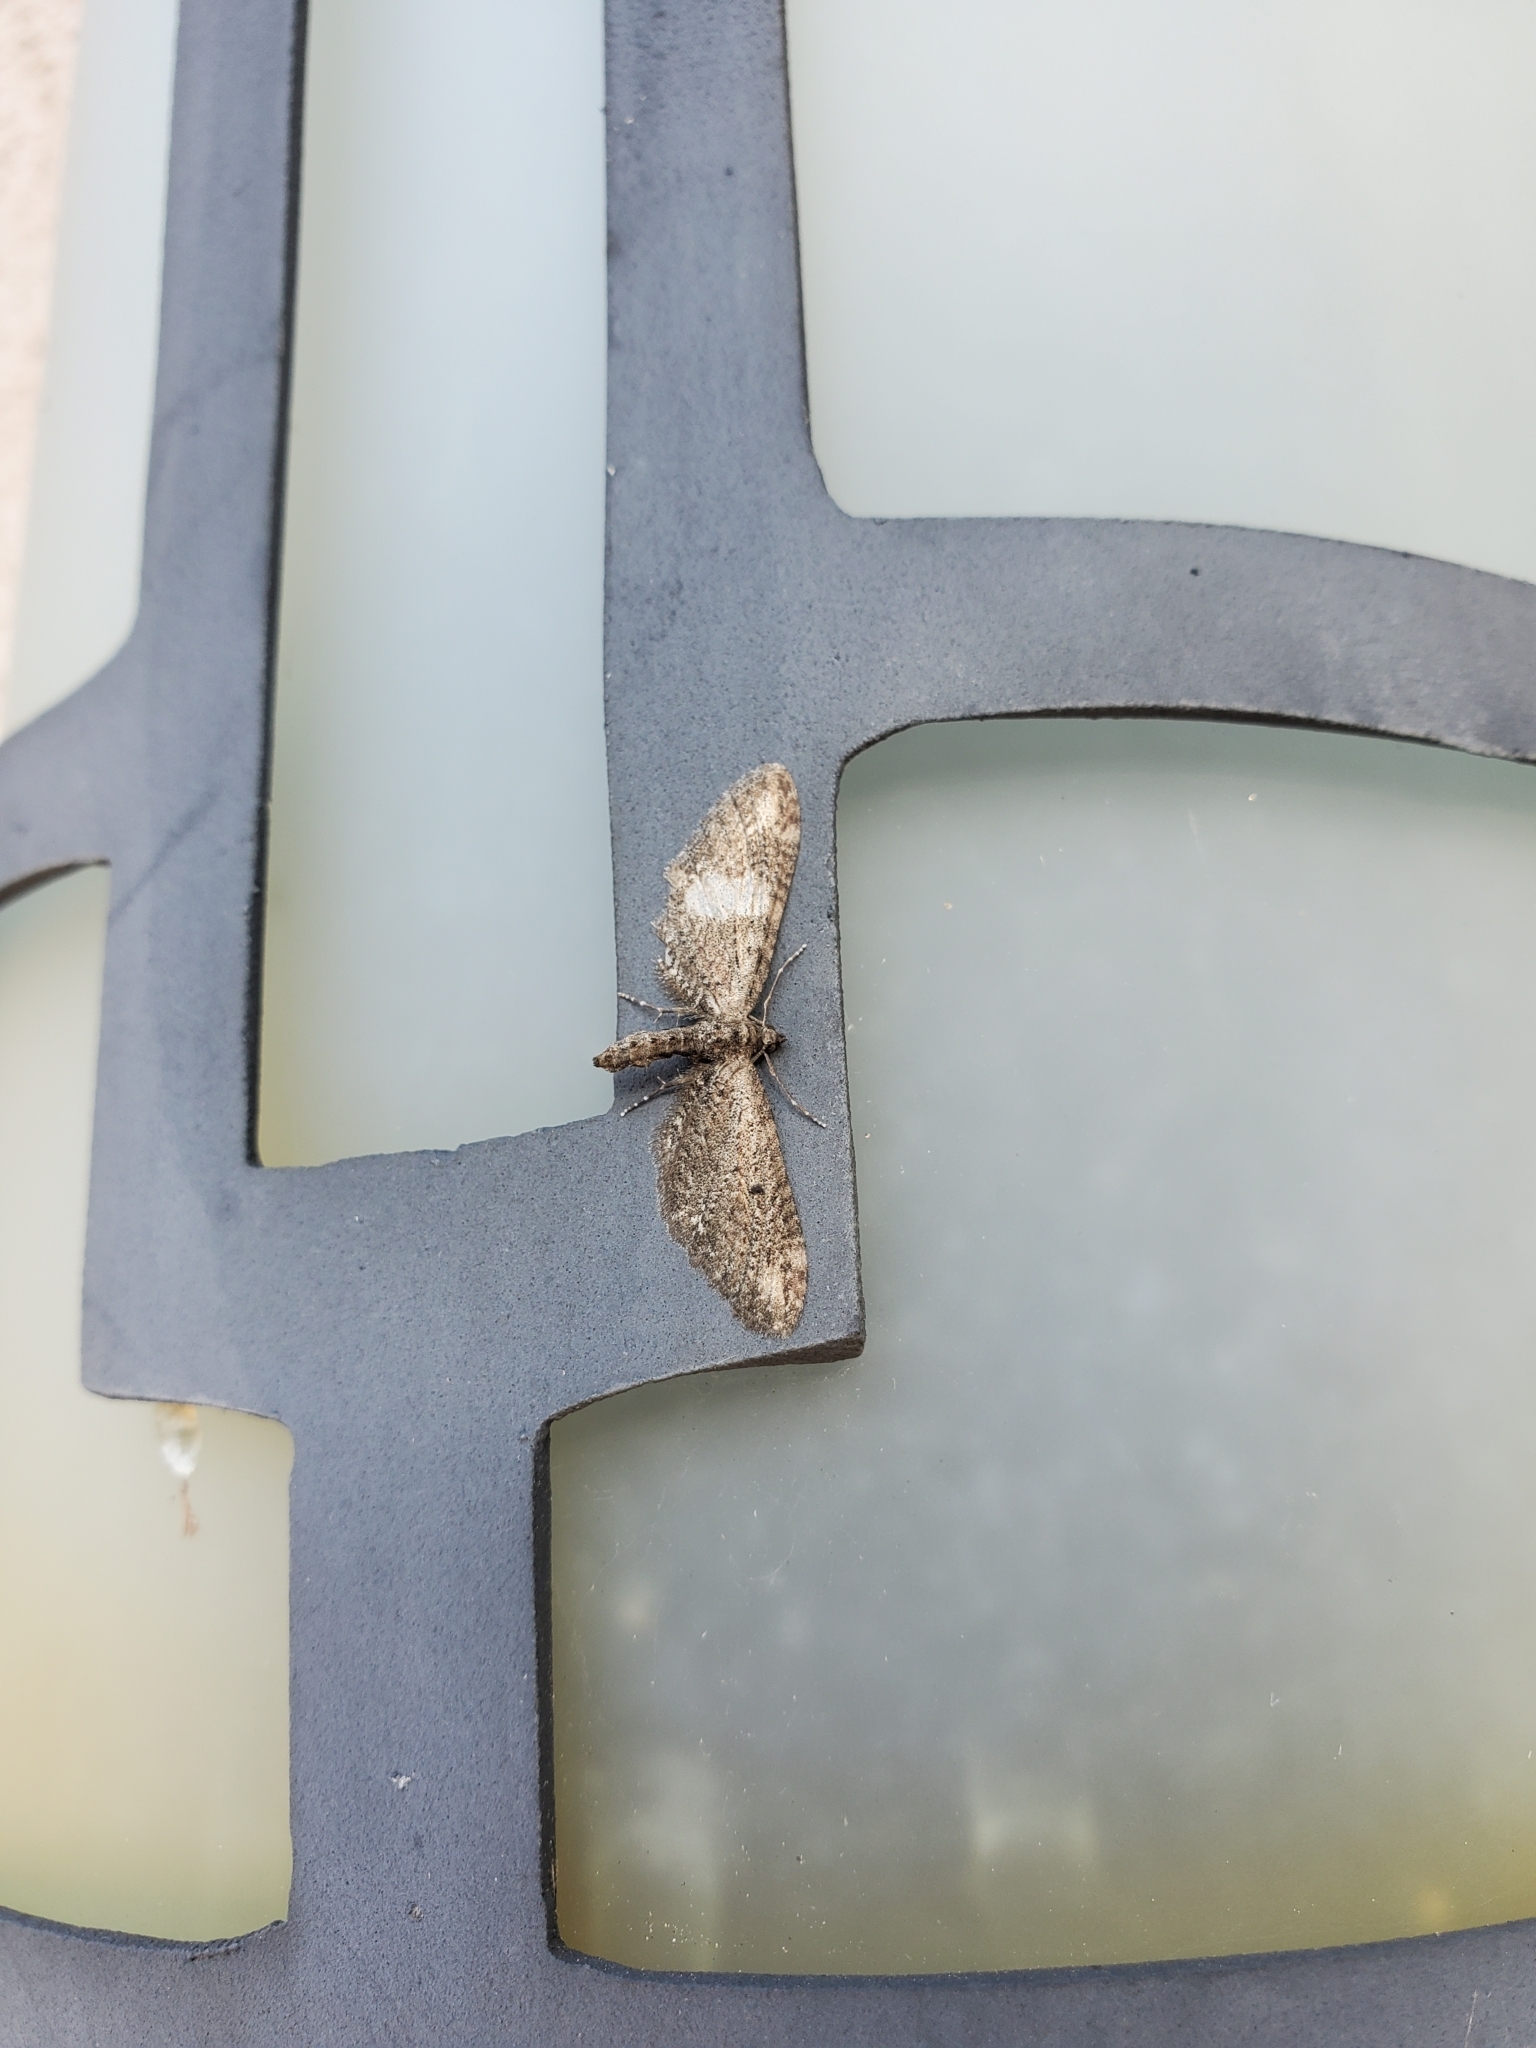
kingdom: Animalia
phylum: Arthropoda
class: Insecta
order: Lepidoptera
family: Geometridae
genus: Eupithecia
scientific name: Eupithecia subapicata
